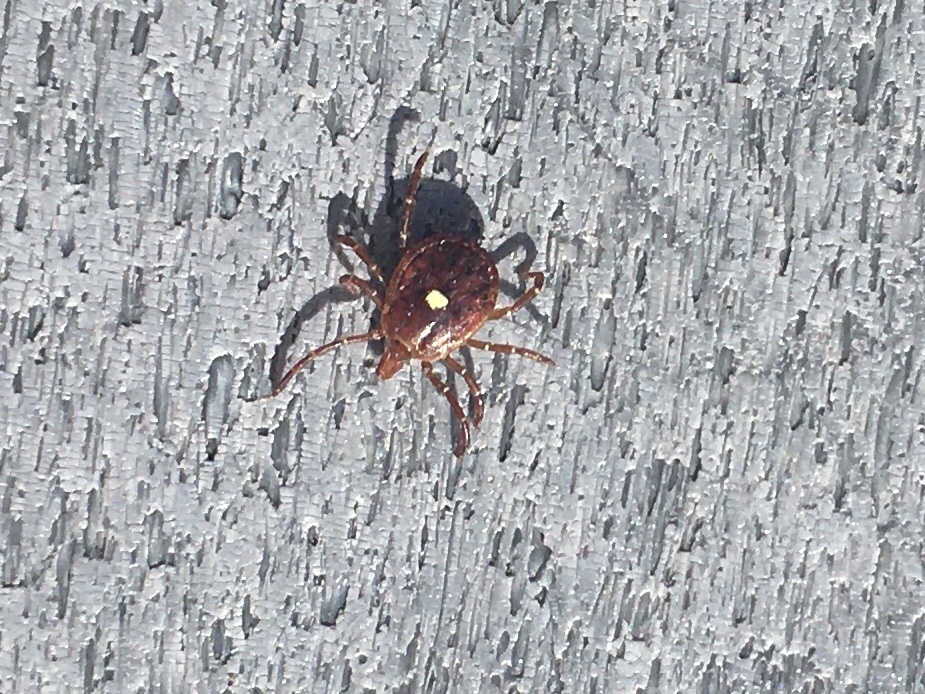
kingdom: Animalia
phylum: Arthropoda
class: Arachnida
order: Ixodida
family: Ixodidae
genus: Amblyomma
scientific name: Amblyomma americanum
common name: Lone star tick
